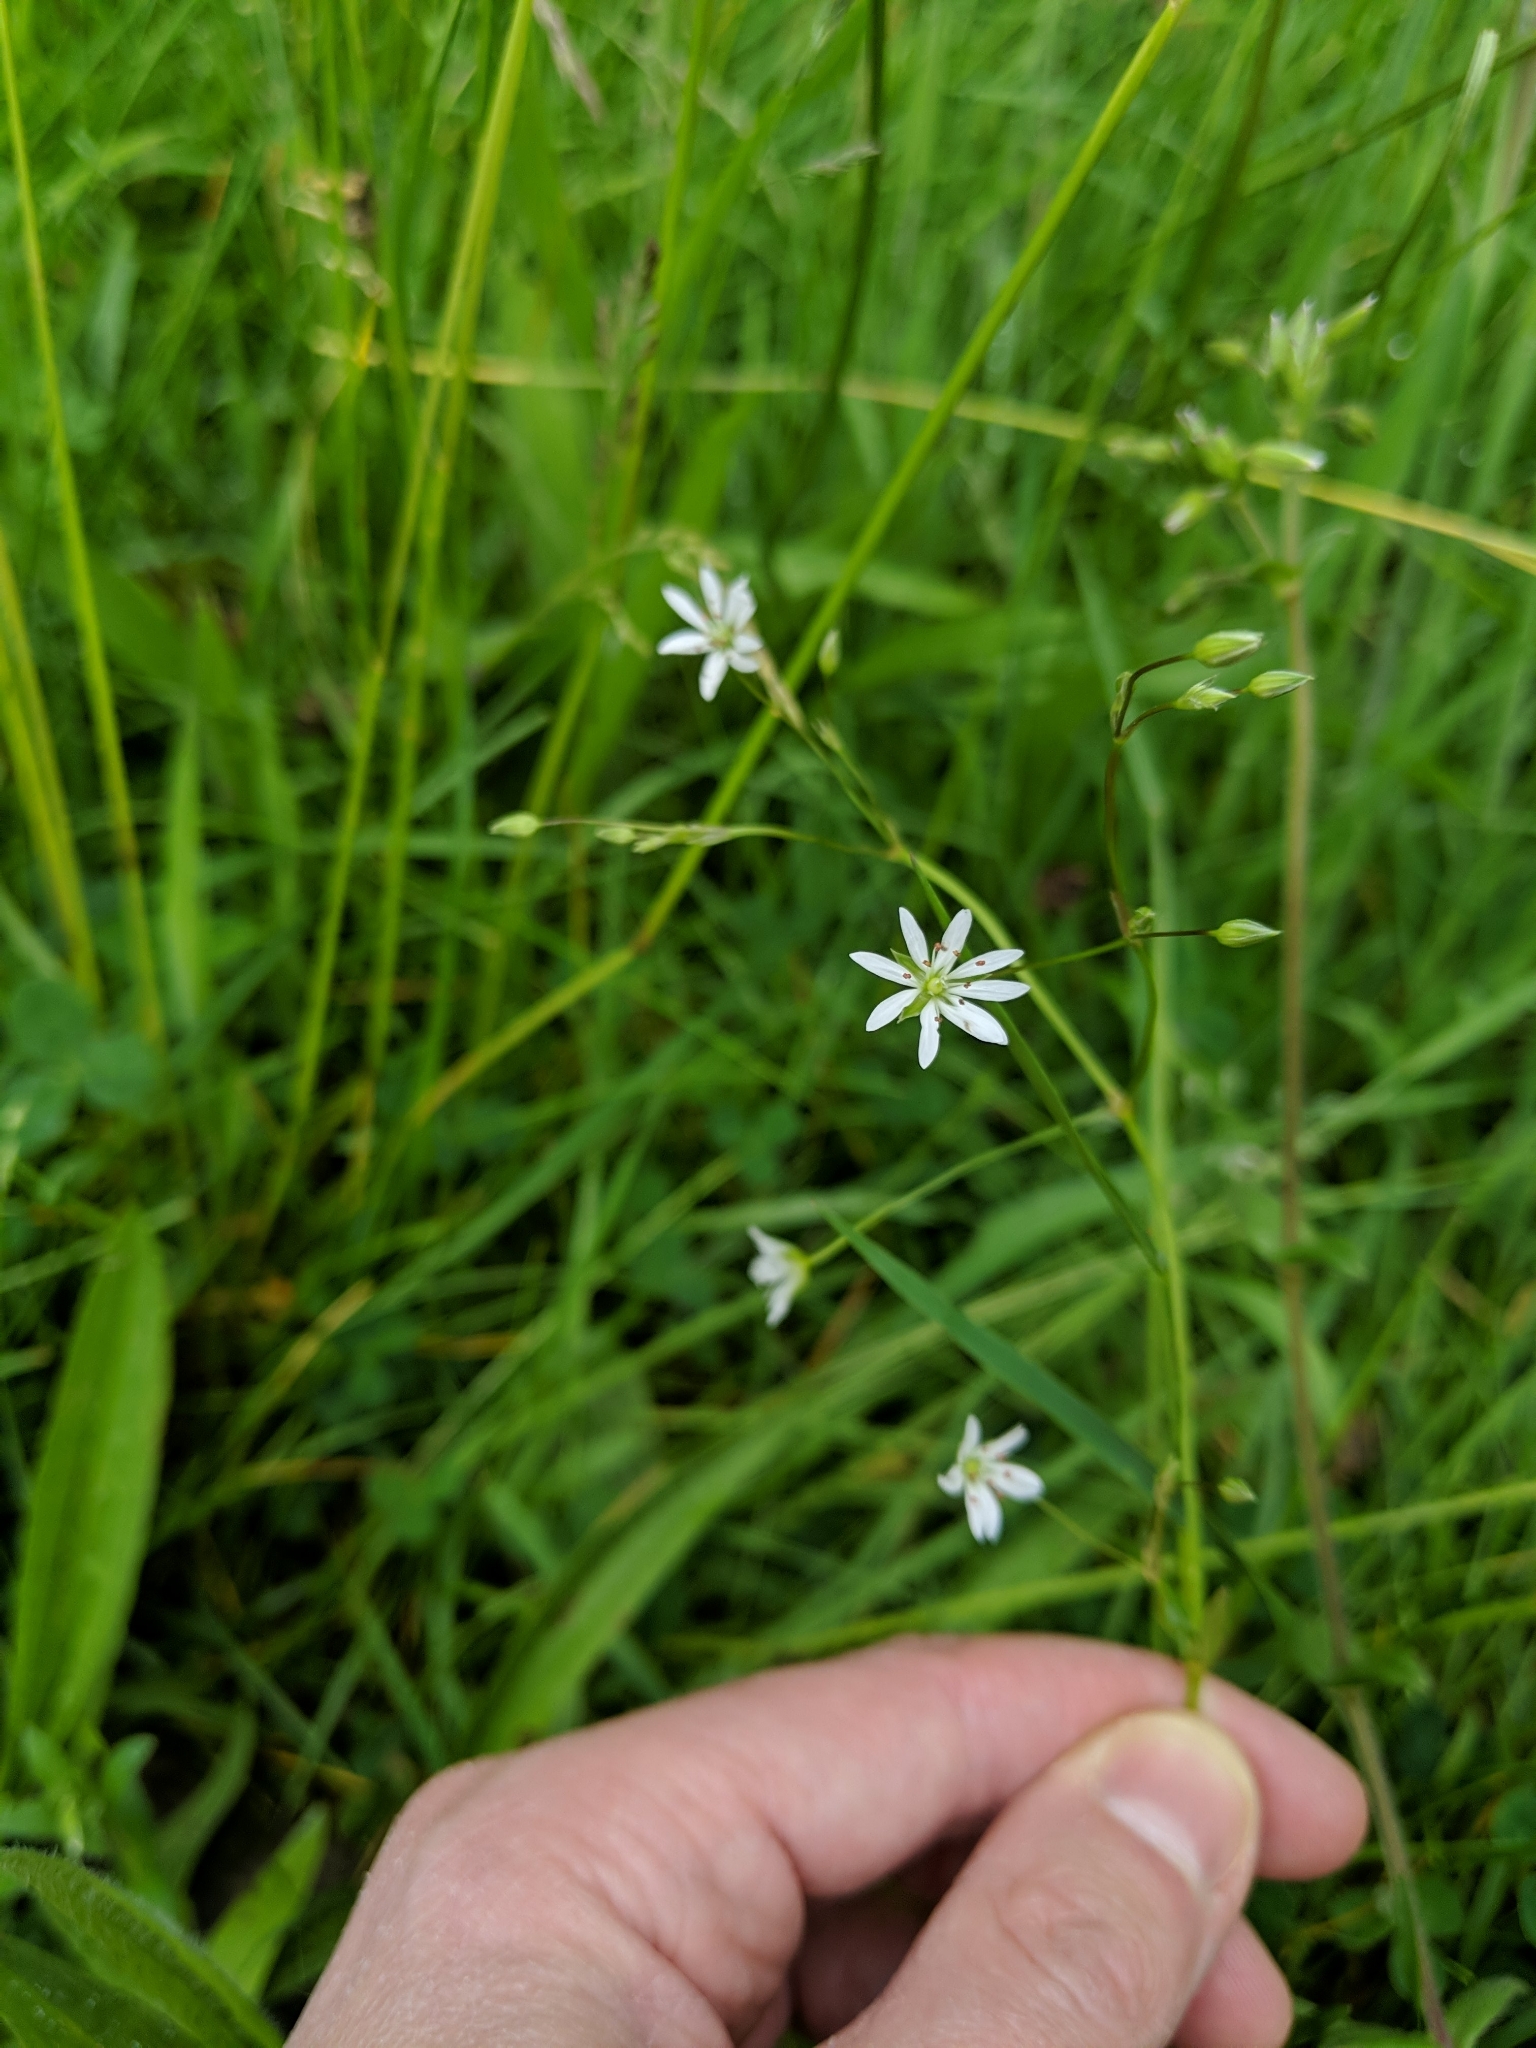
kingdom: Plantae
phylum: Tracheophyta
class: Magnoliopsida
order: Caryophyllales
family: Caryophyllaceae
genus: Stellaria
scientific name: Stellaria graminea
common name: Grass-like starwort
